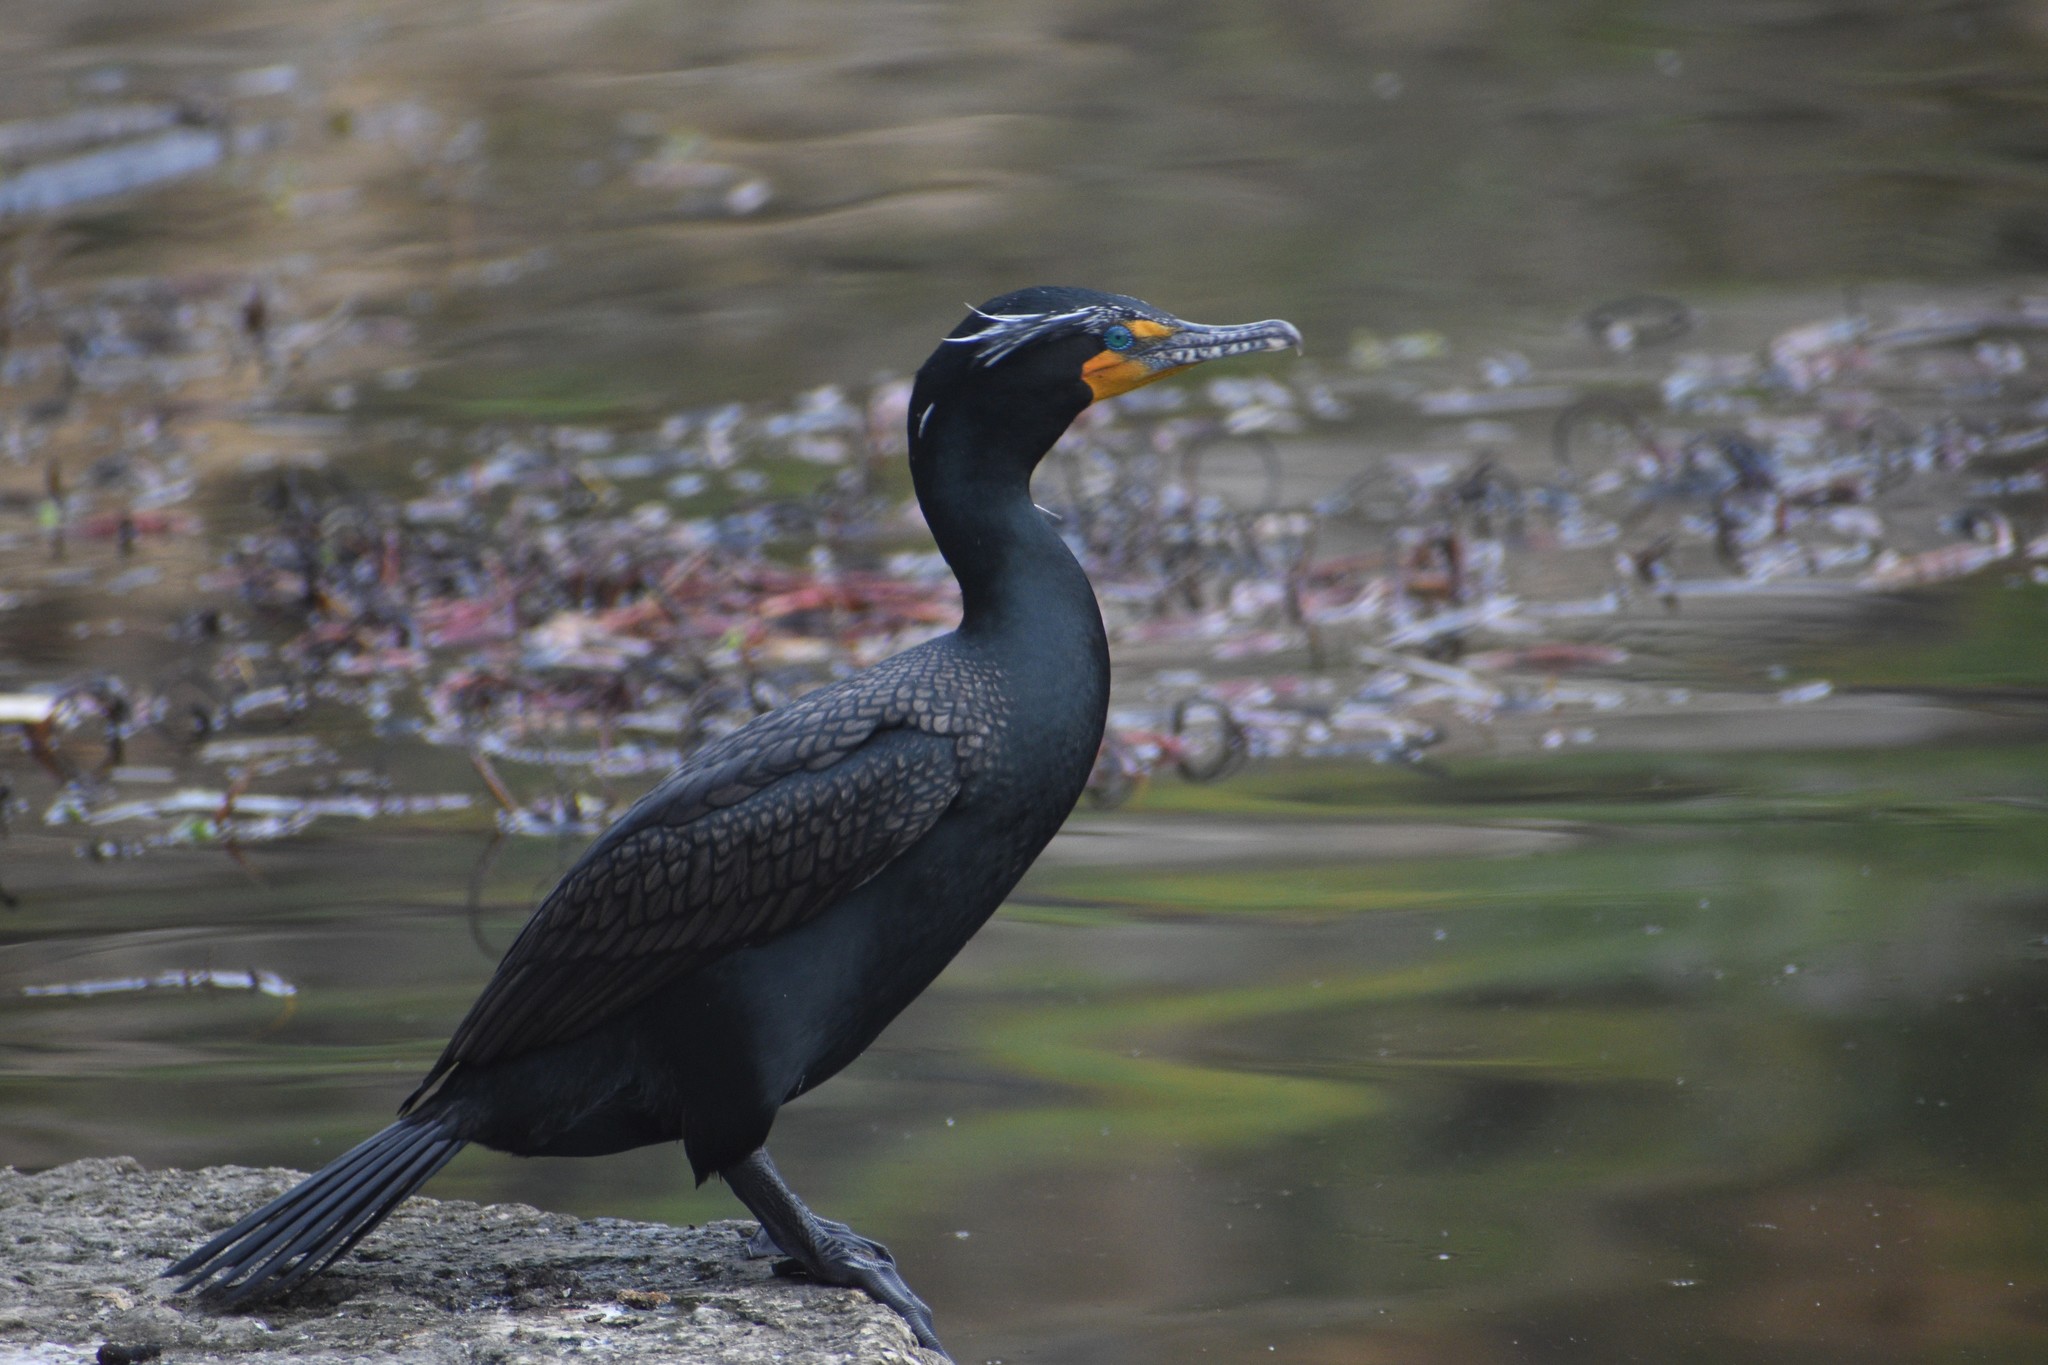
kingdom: Animalia
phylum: Chordata
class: Aves
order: Suliformes
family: Phalacrocoracidae
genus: Phalacrocorax
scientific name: Phalacrocorax auritus
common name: Double-crested cormorant
